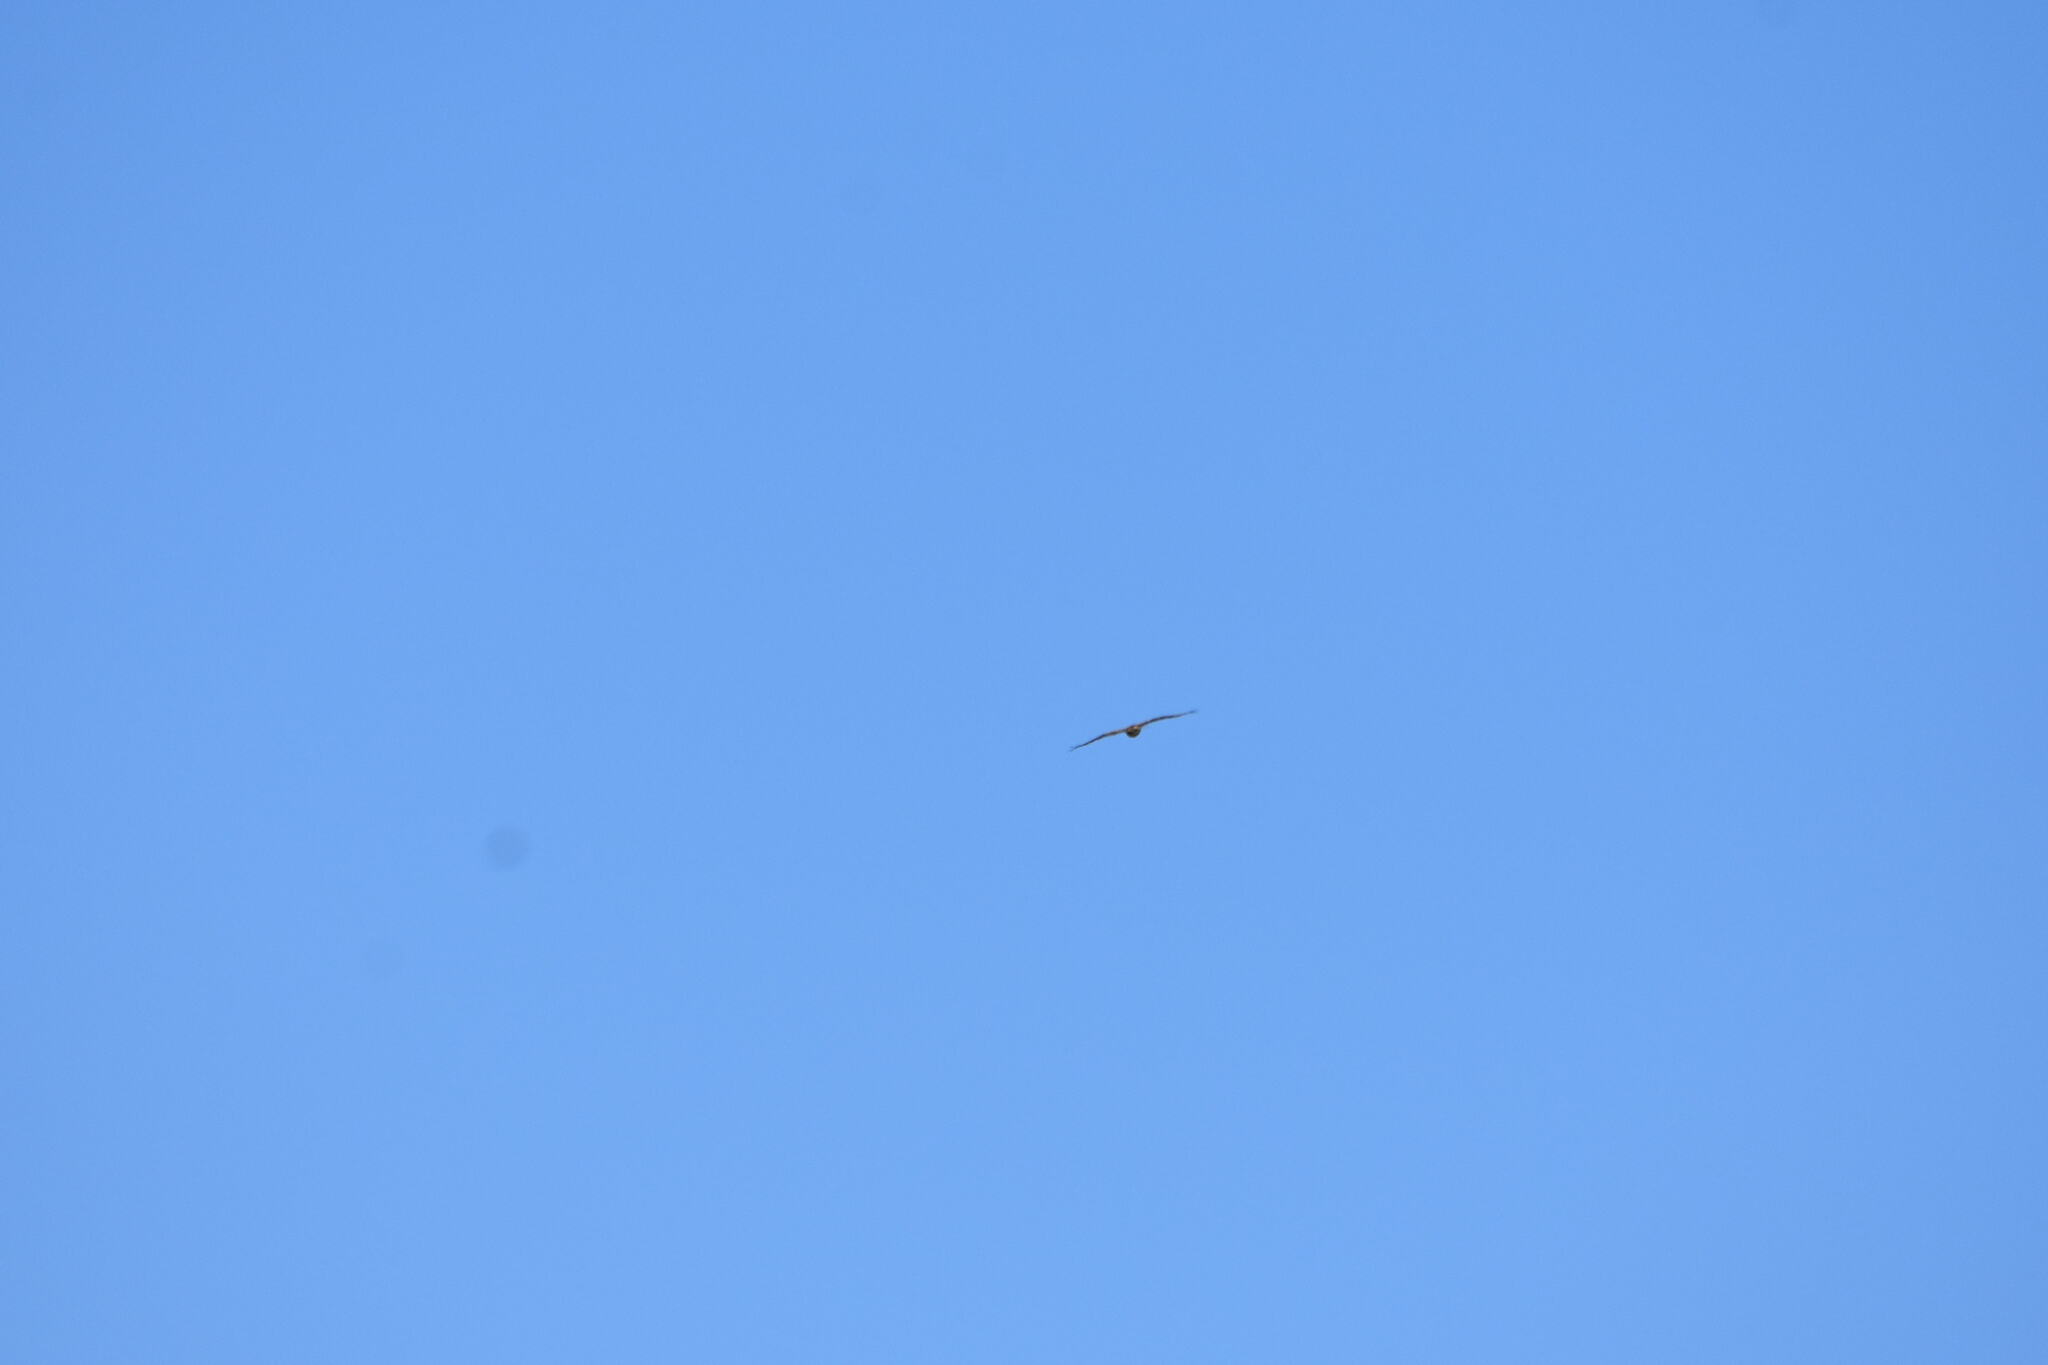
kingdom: Animalia
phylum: Chordata
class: Aves
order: Accipitriformes
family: Accipitridae
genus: Buteo
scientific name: Buteo buteo
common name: Common buzzard
